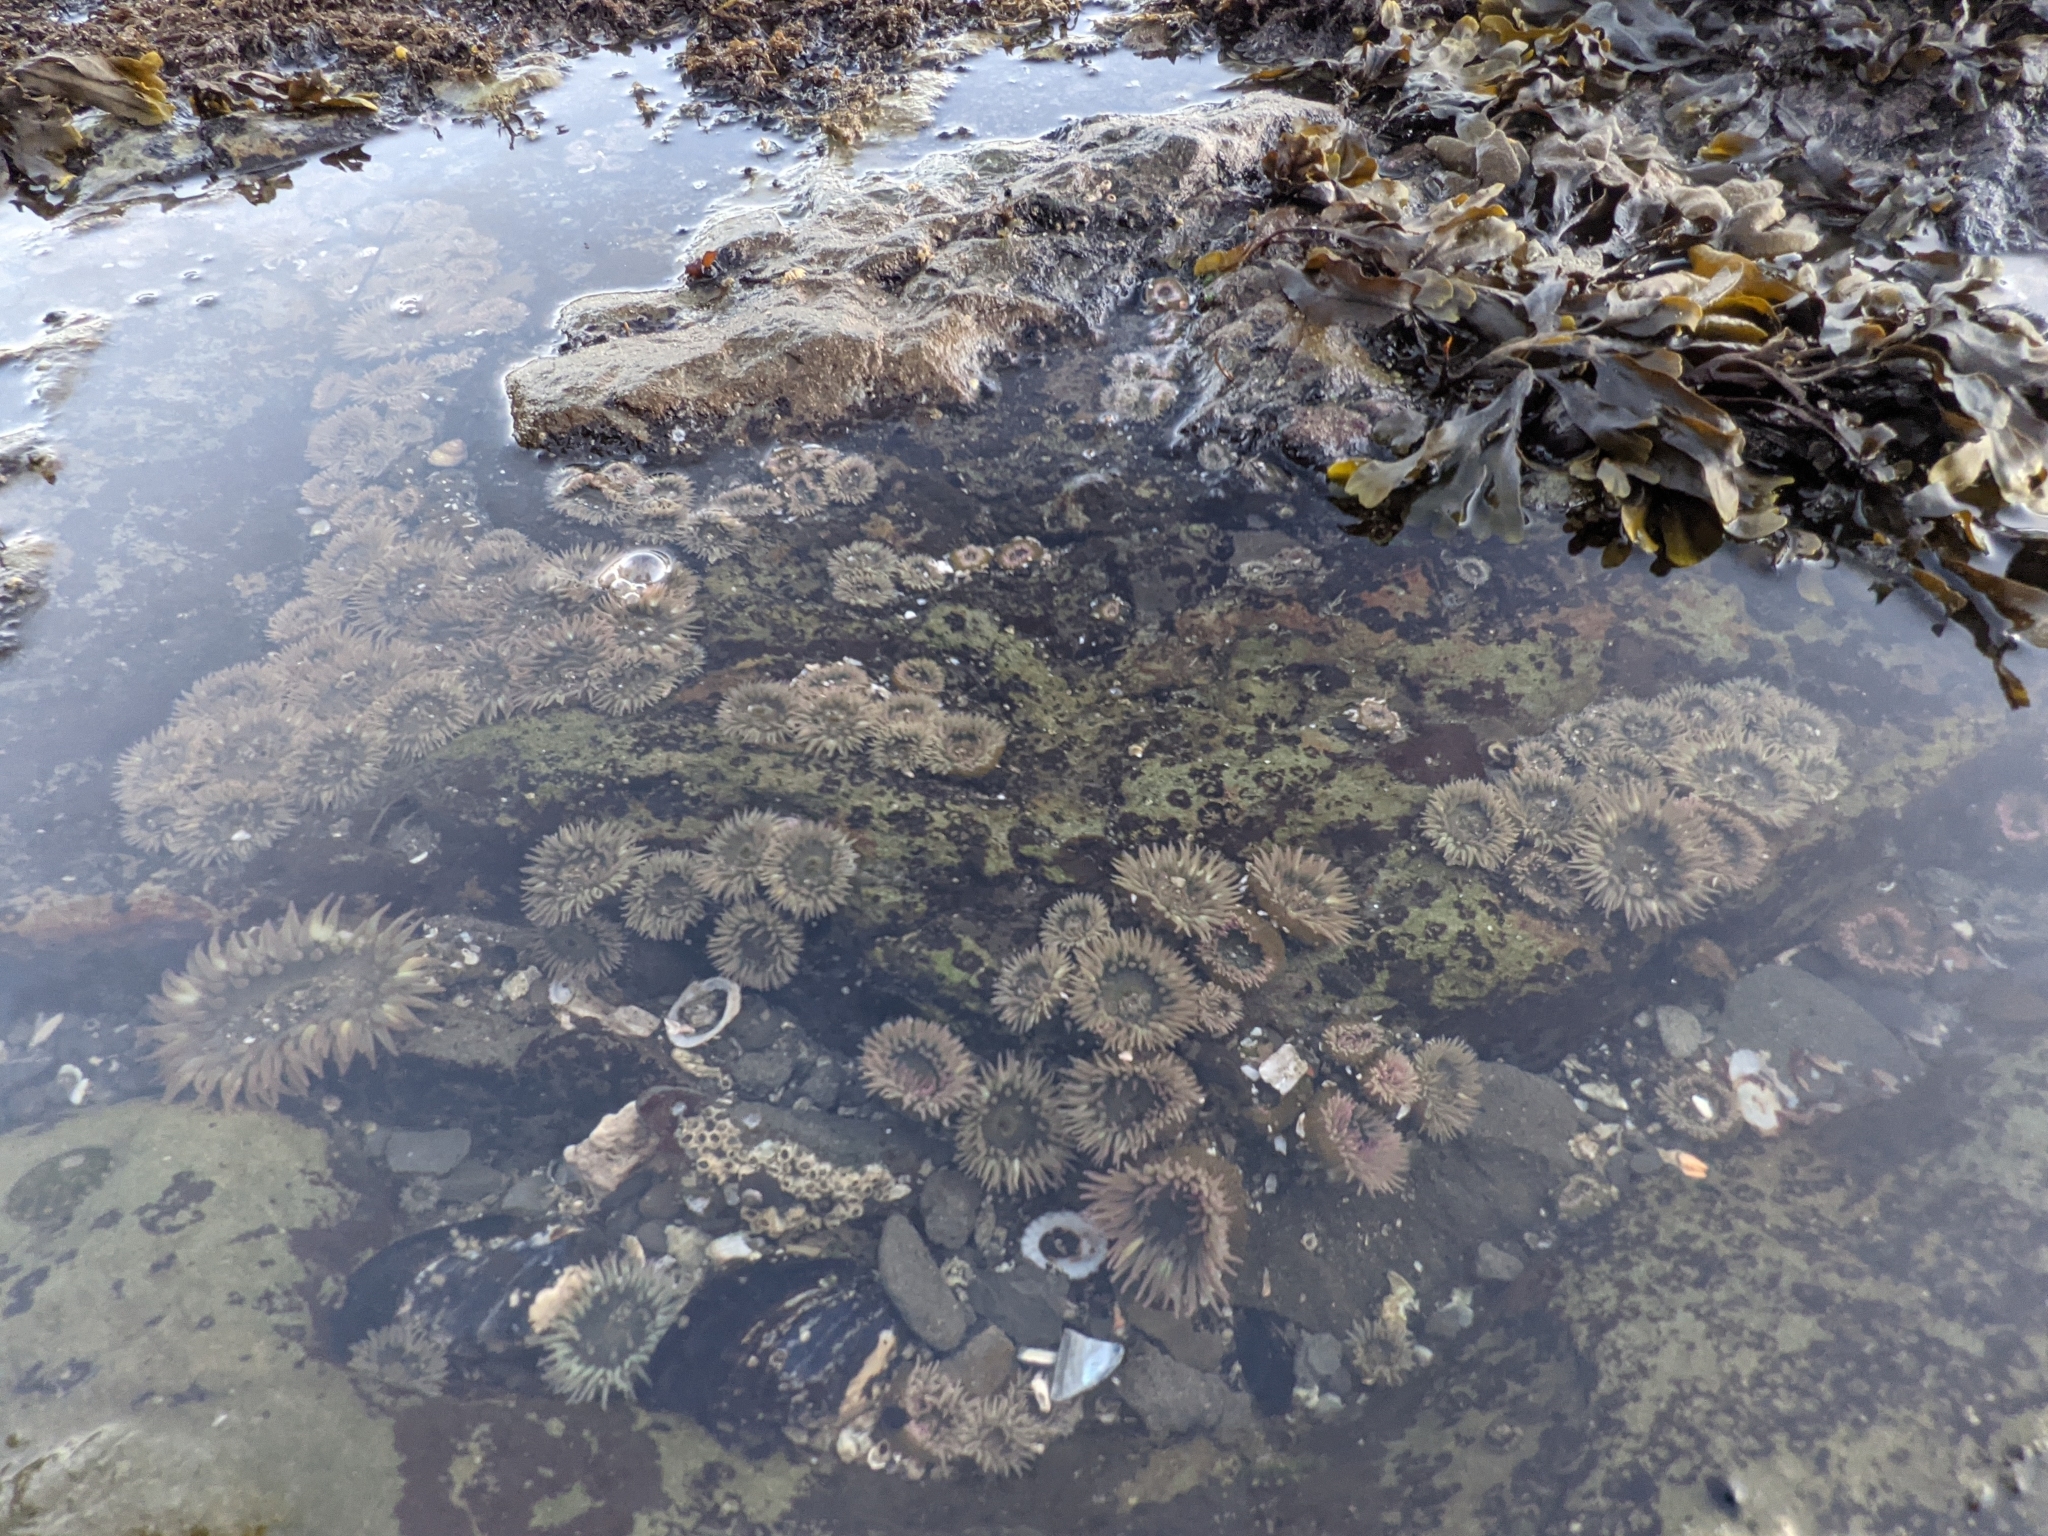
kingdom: Animalia
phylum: Cnidaria
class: Anthozoa
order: Actiniaria
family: Actiniidae
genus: Anthopleura
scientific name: Anthopleura elegantissima
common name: Clonal anemone
